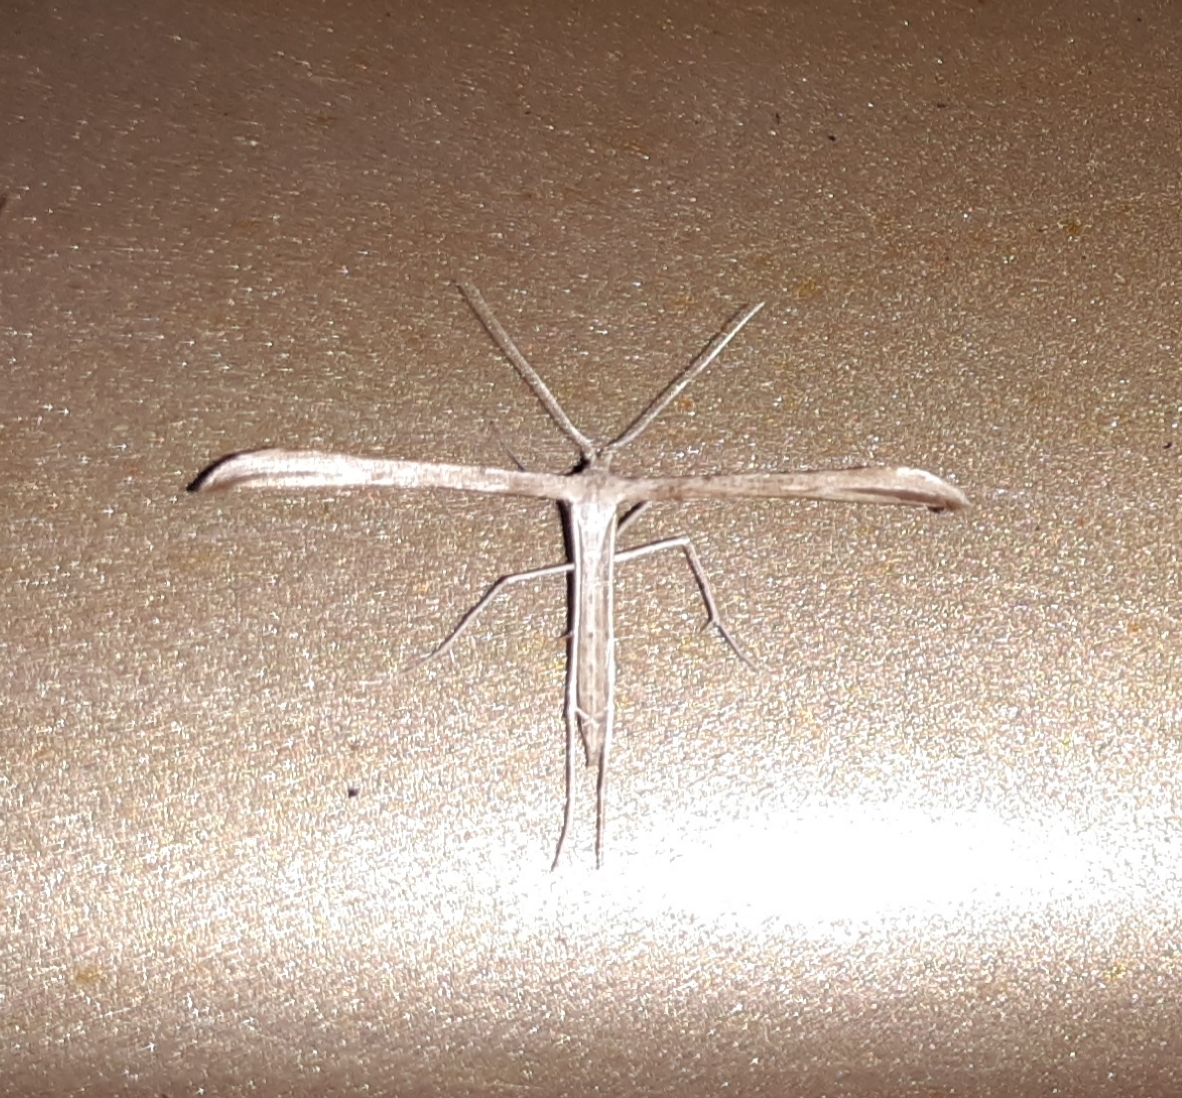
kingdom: Animalia
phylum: Arthropoda
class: Insecta
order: Lepidoptera
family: Pterophoridae
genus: Emmelina
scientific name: Emmelina monodactyla
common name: Common plume
